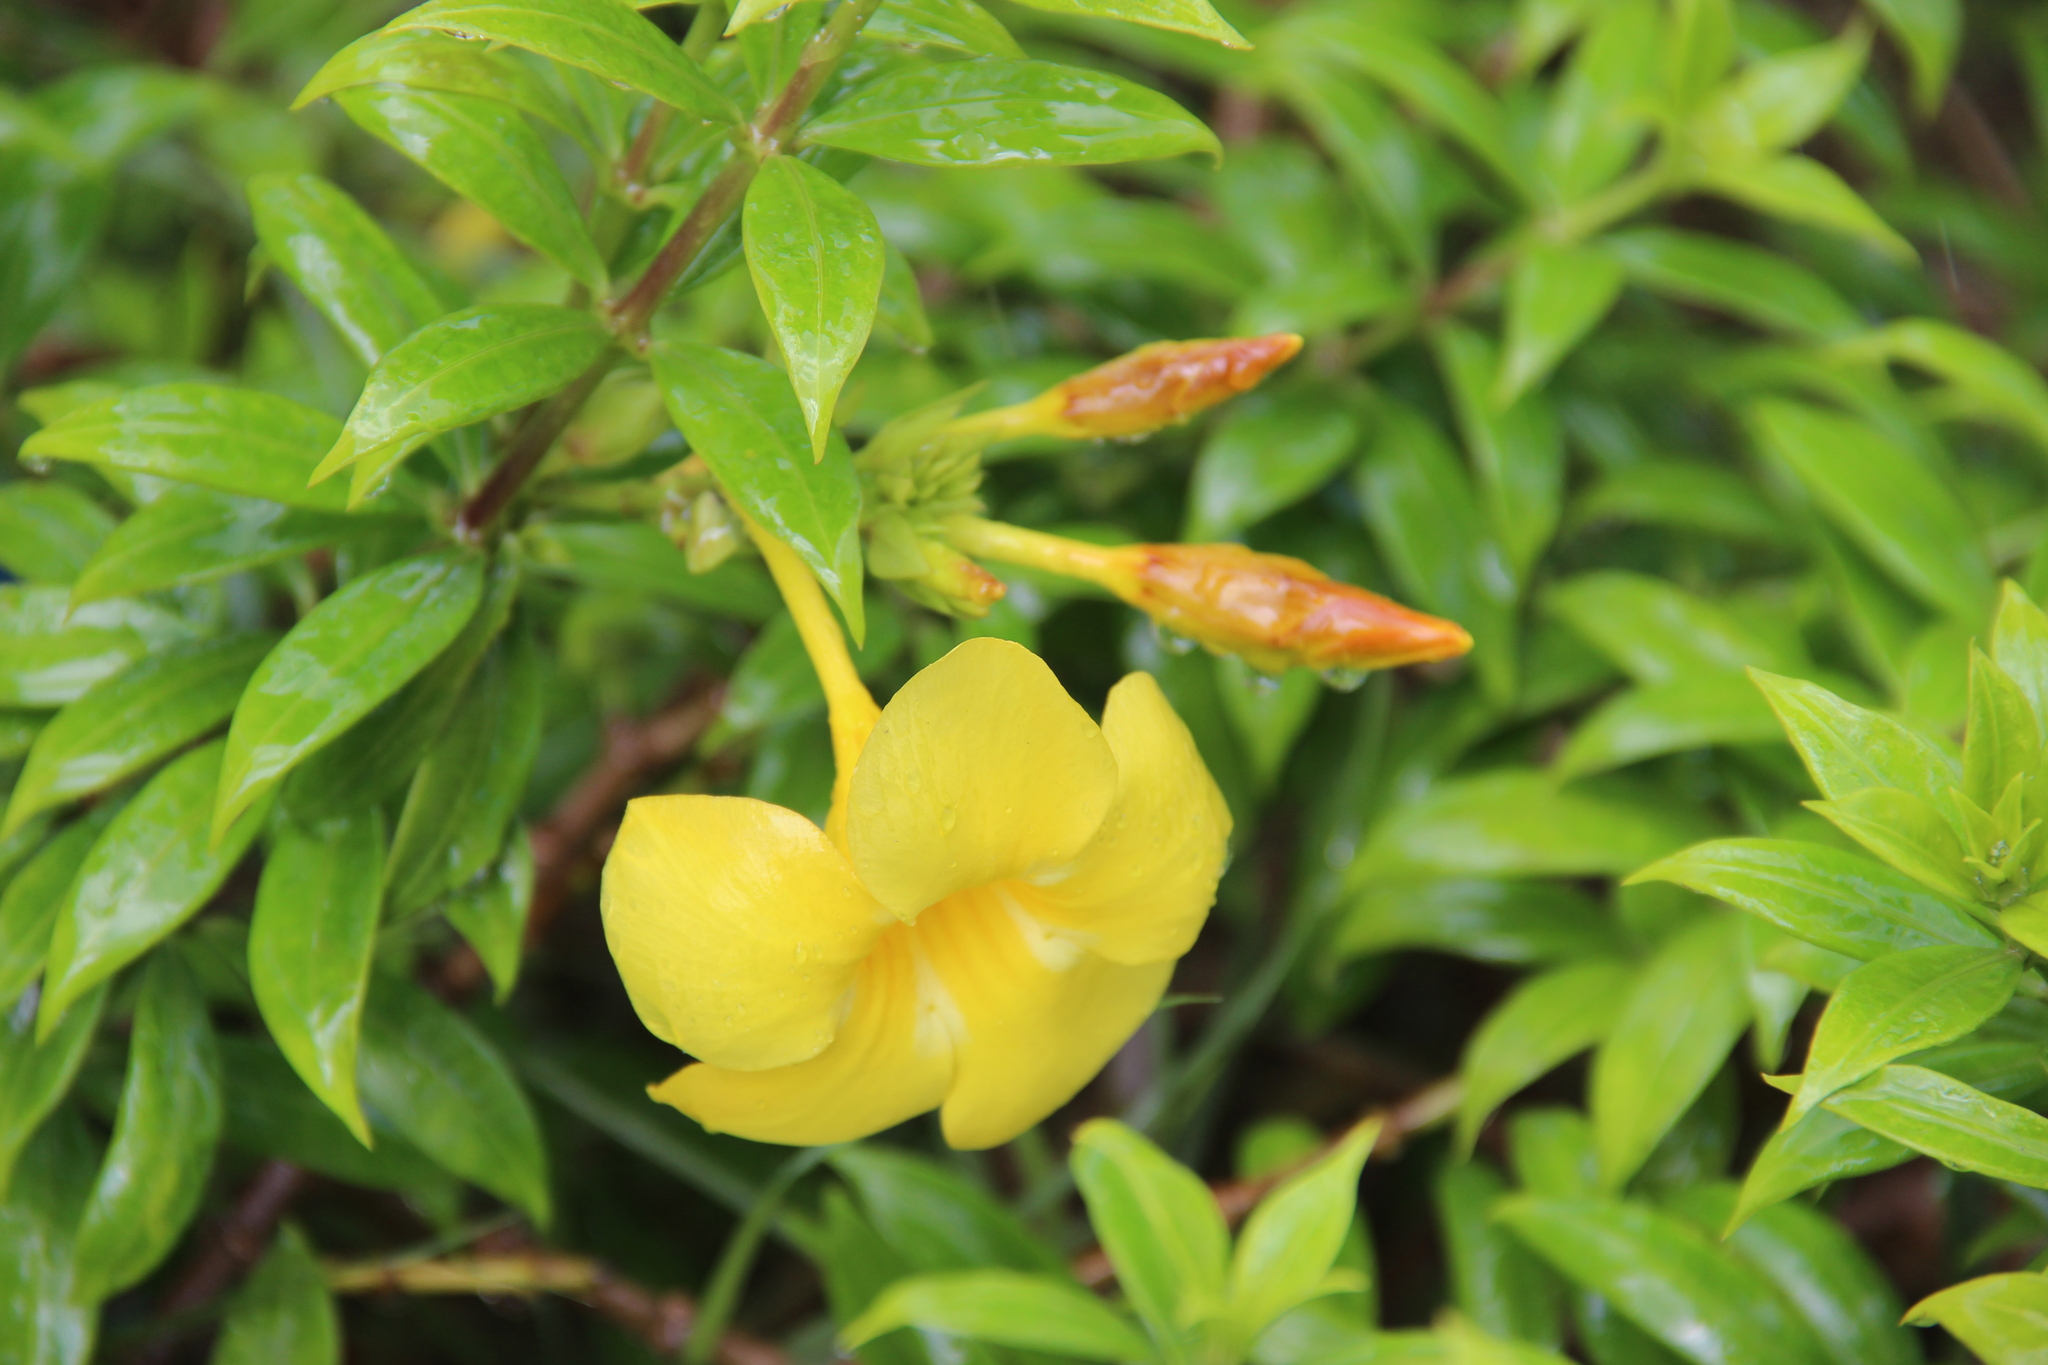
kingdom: Plantae
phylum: Tracheophyta
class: Magnoliopsida
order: Gentianales
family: Apocynaceae
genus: Allamanda
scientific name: Allamanda cathartica
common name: Golden trumpet
